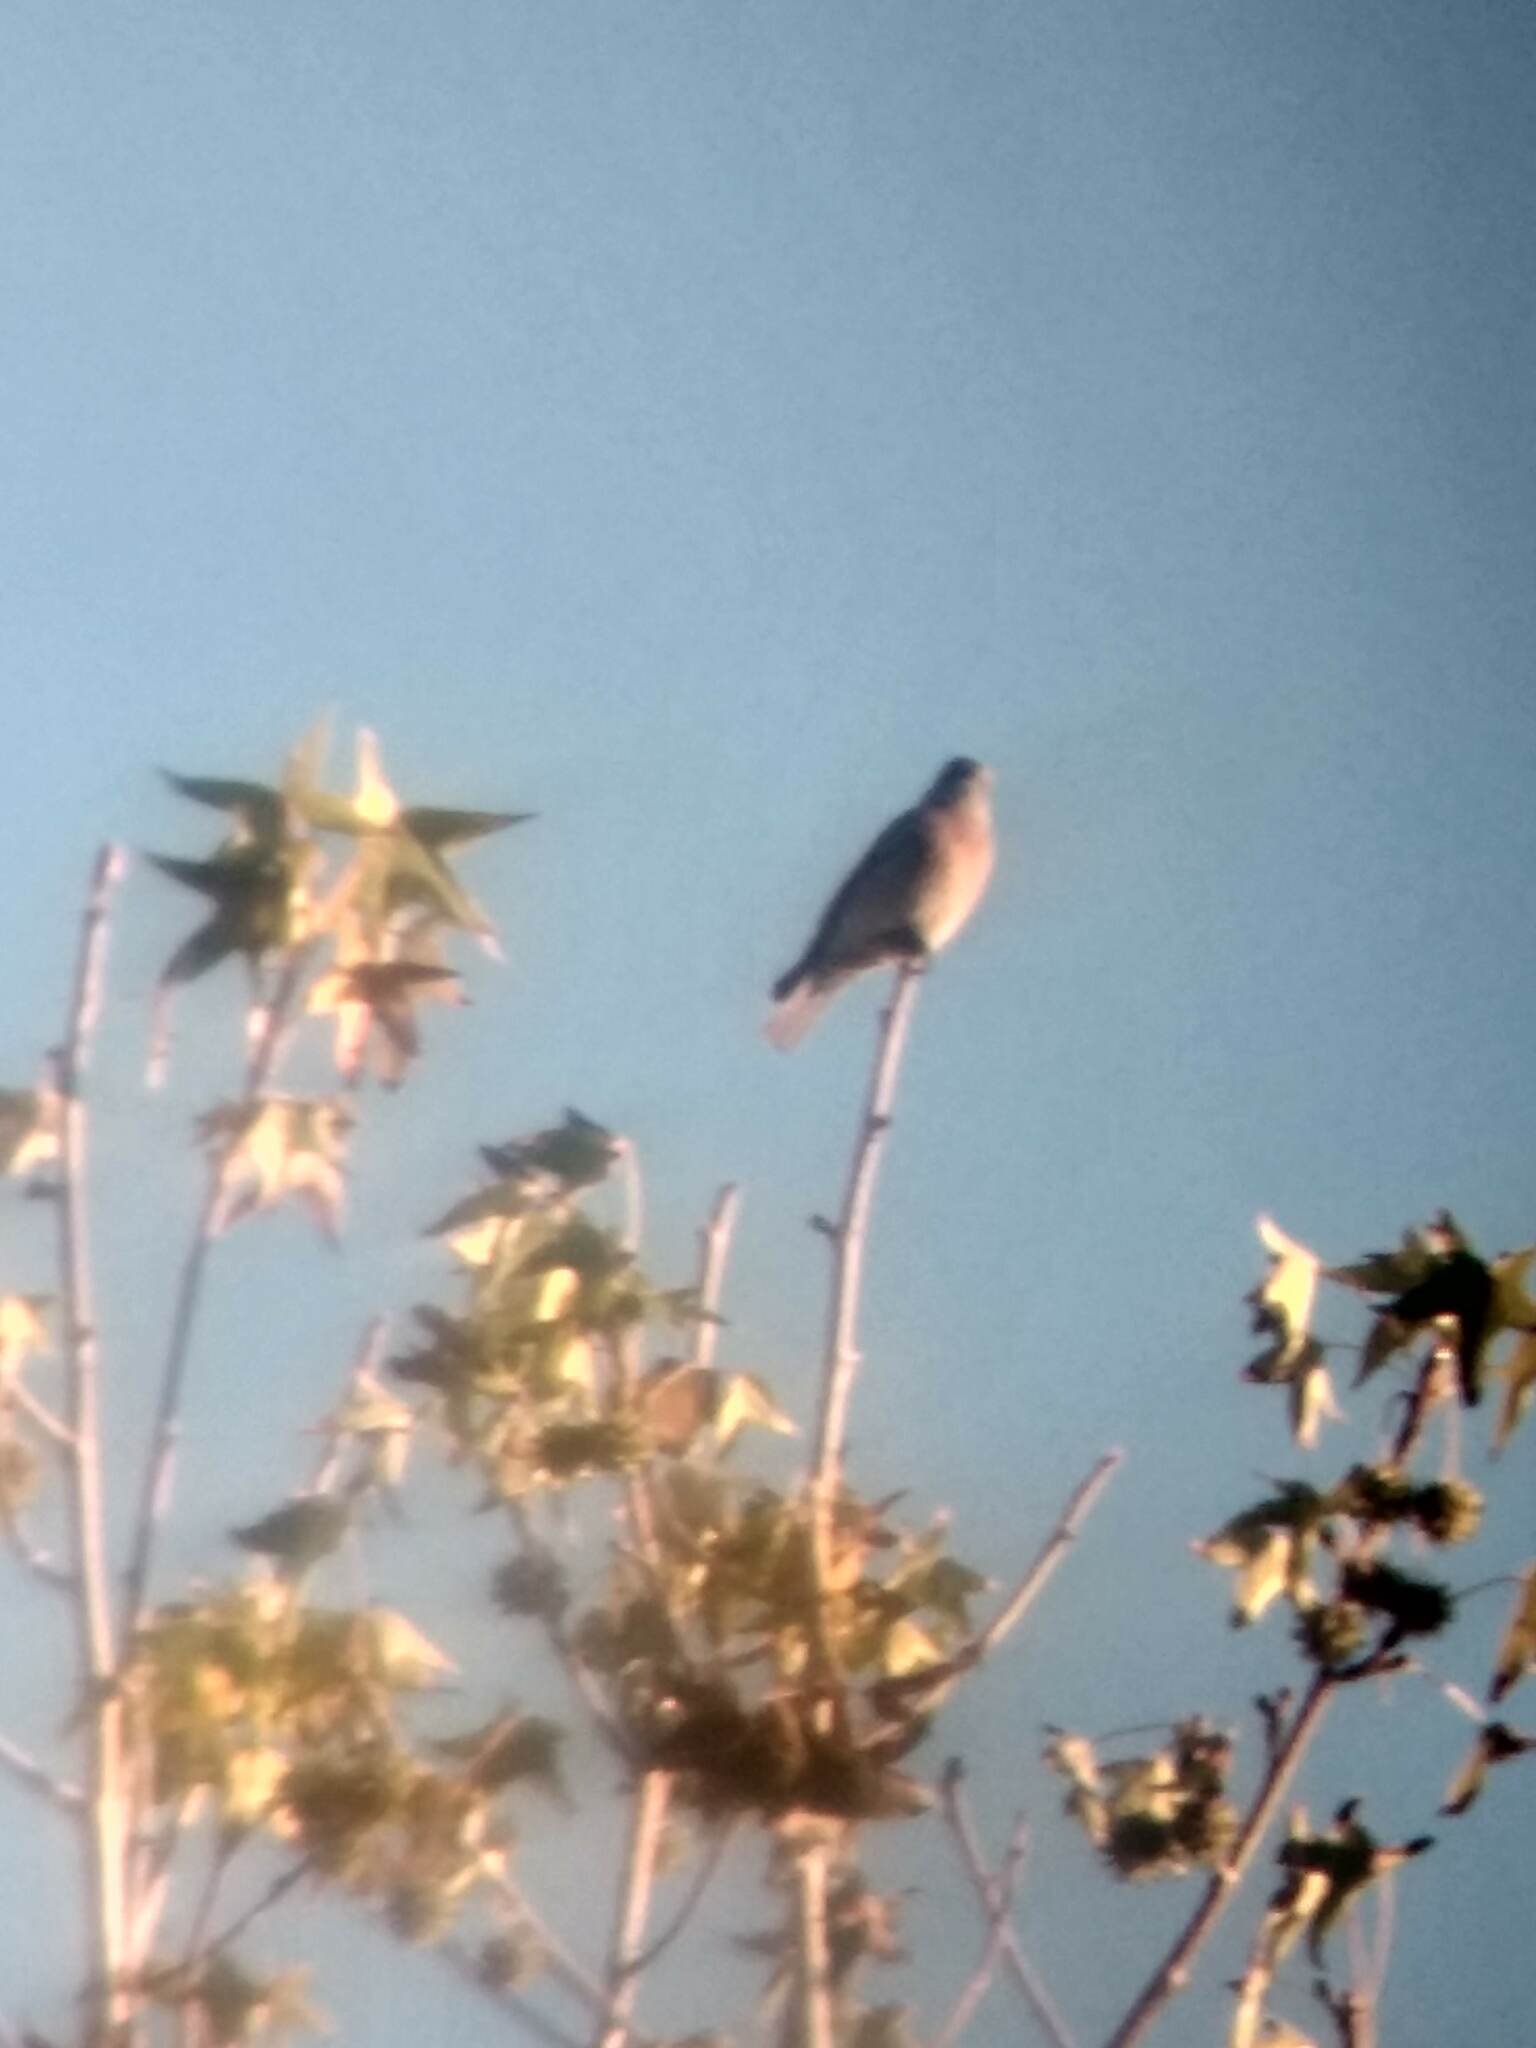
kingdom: Animalia
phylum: Chordata
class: Aves
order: Passeriformes
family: Turdidae
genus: Sialia
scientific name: Sialia mexicana
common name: Western bluebird
